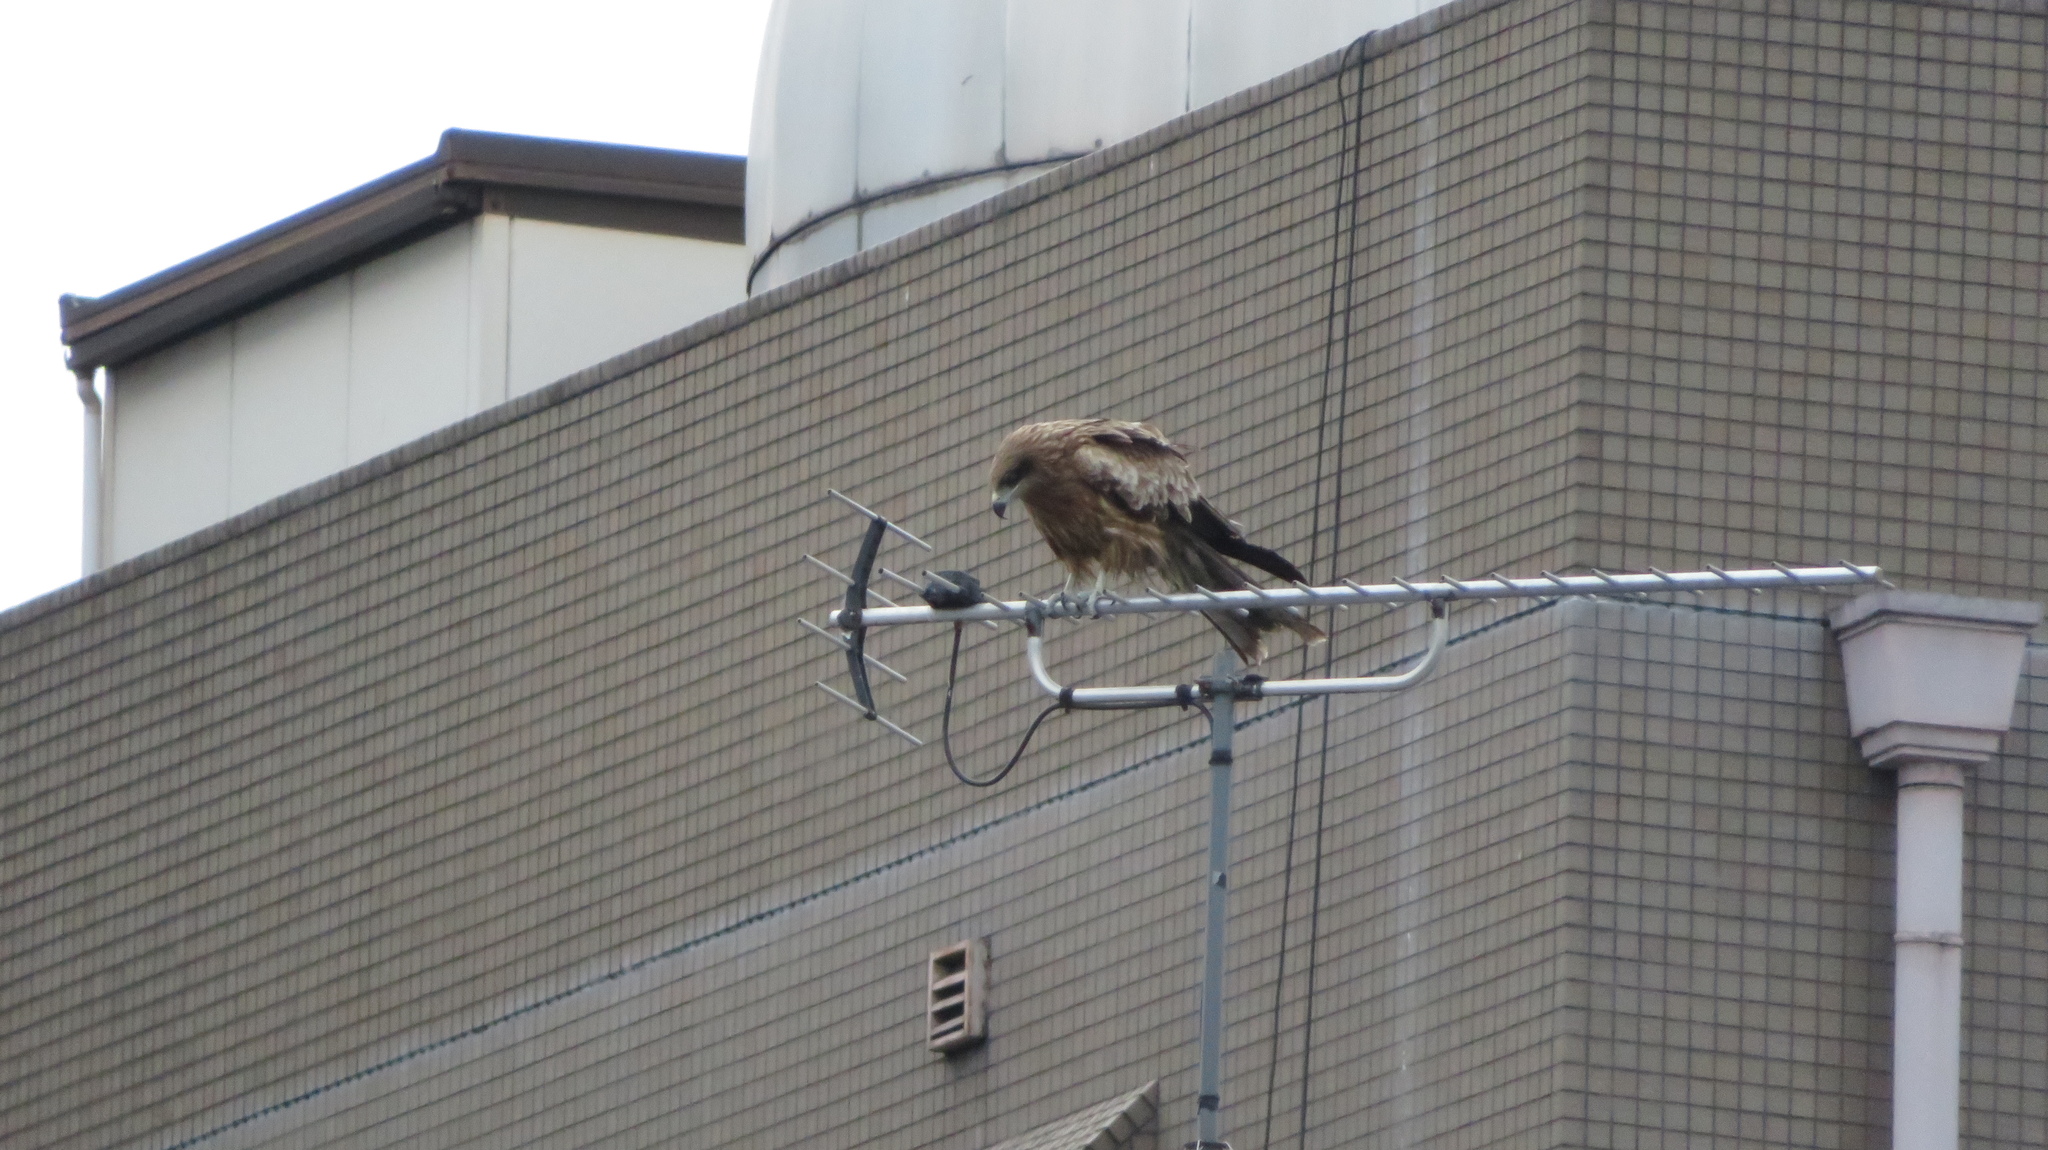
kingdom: Animalia
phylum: Chordata
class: Aves
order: Accipitriformes
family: Accipitridae
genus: Milvus
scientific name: Milvus migrans
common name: Black kite
